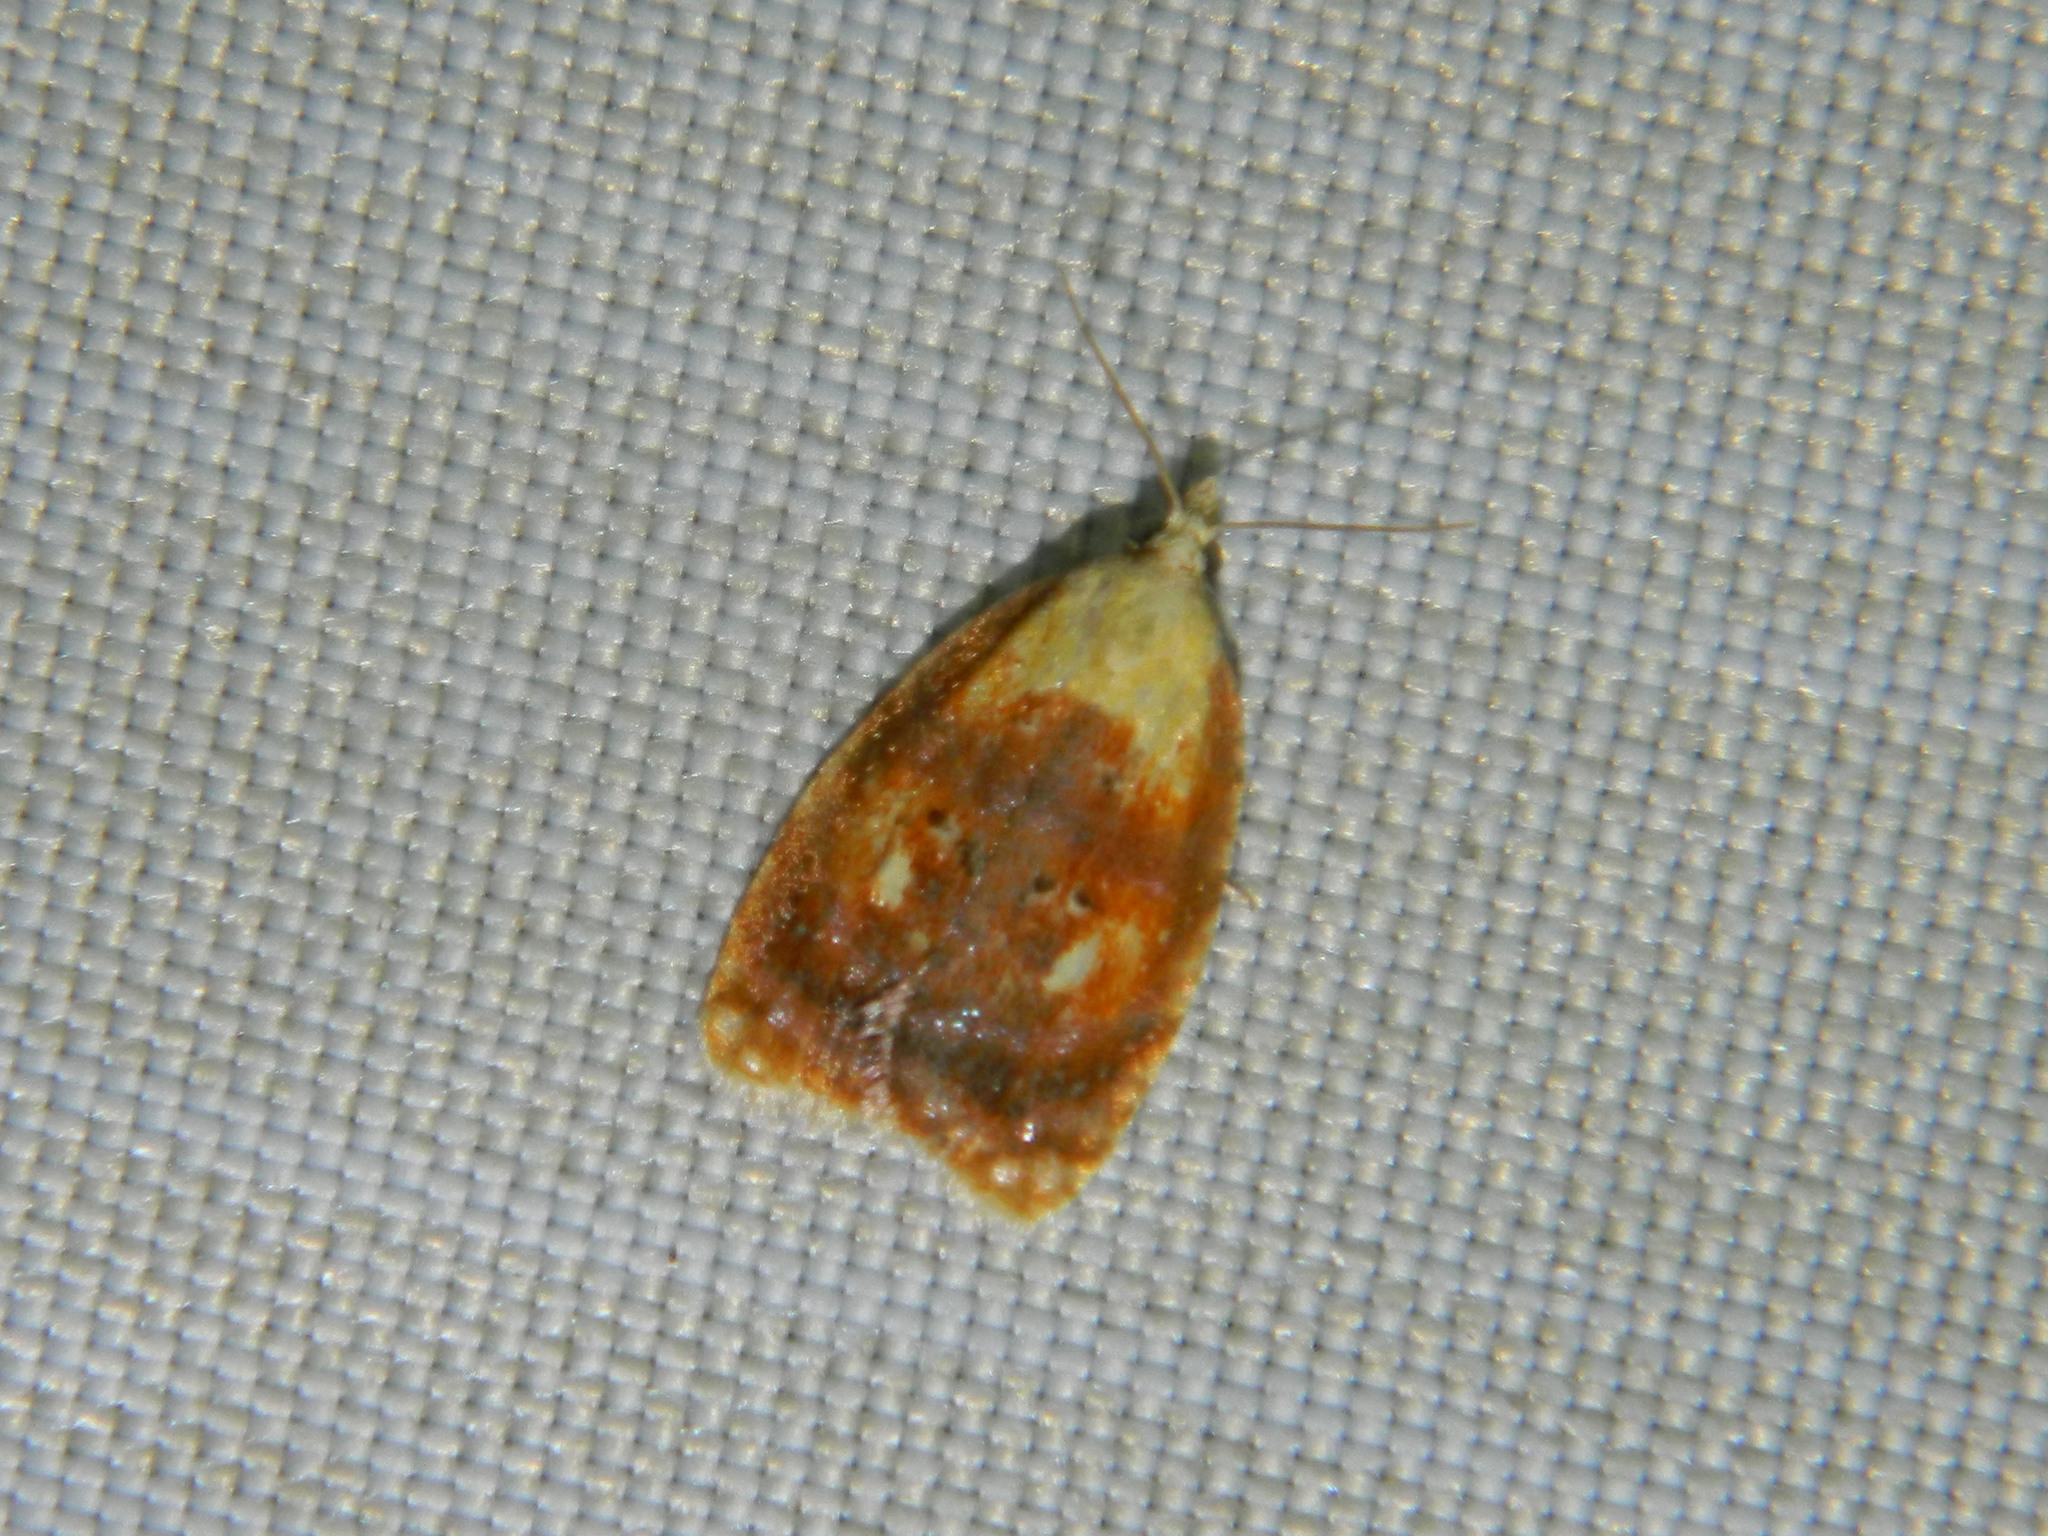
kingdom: Animalia
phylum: Arthropoda
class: Insecta
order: Lepidoptera
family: Tortricidae
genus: Acleris
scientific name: Acleris curvalana
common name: Blueberry leaftier moth
